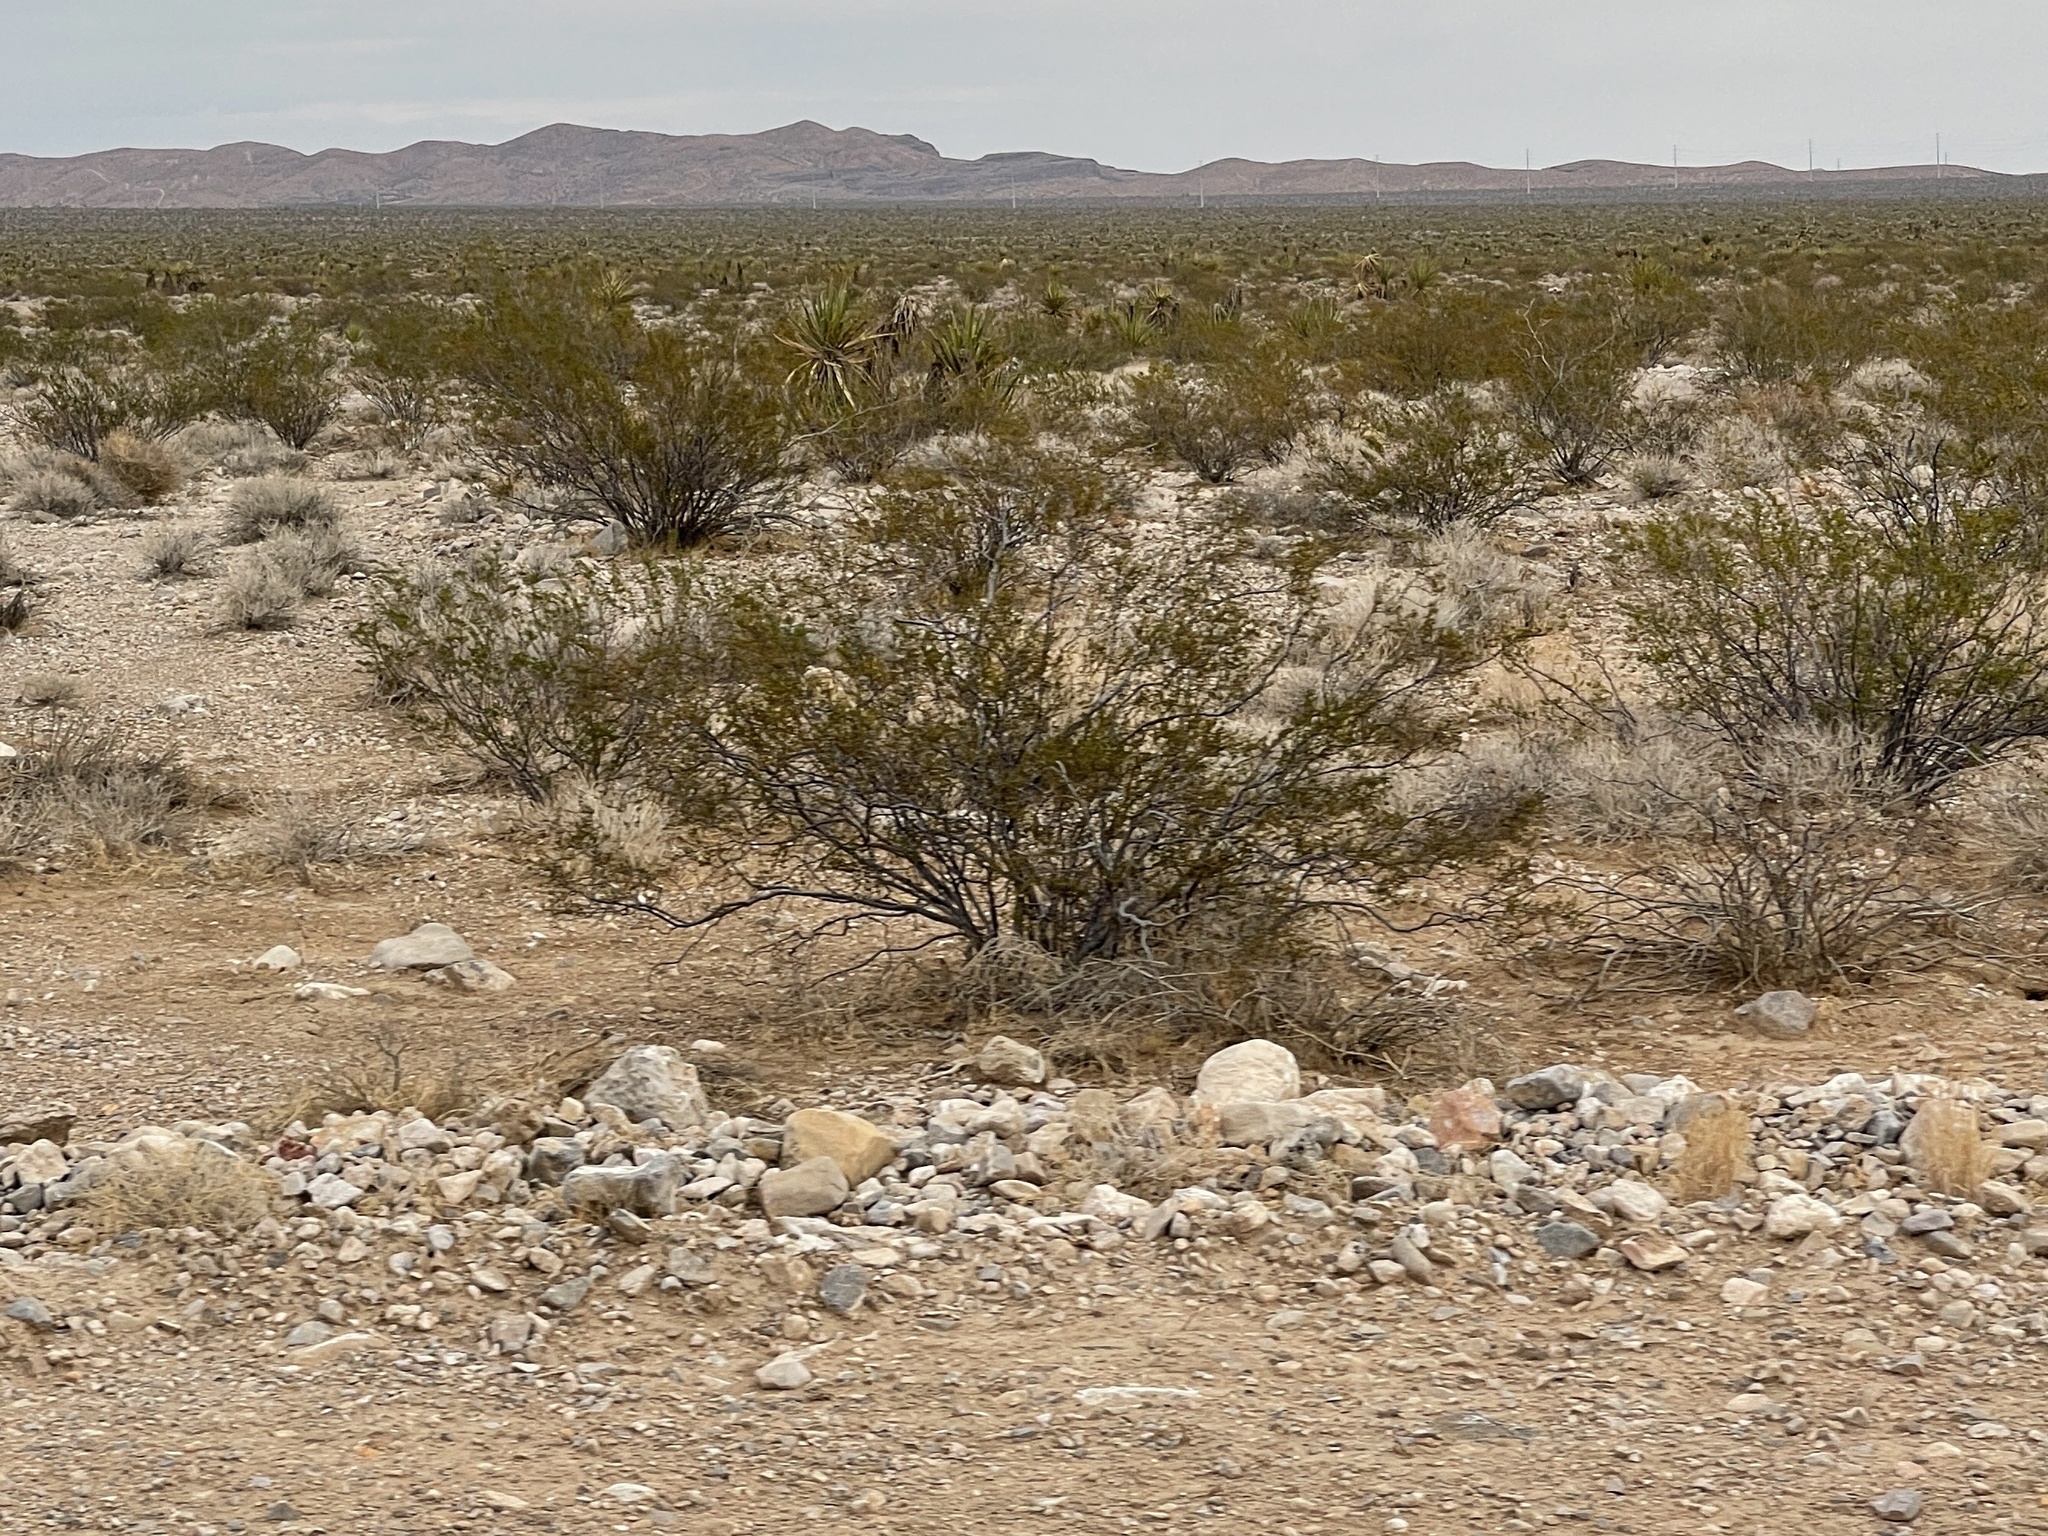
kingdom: Plantae
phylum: Tracheophyta
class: Magnoliopsida
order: Zygophyllales
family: Zygophyllaceae
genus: Larrea
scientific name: Larrea tridentata
